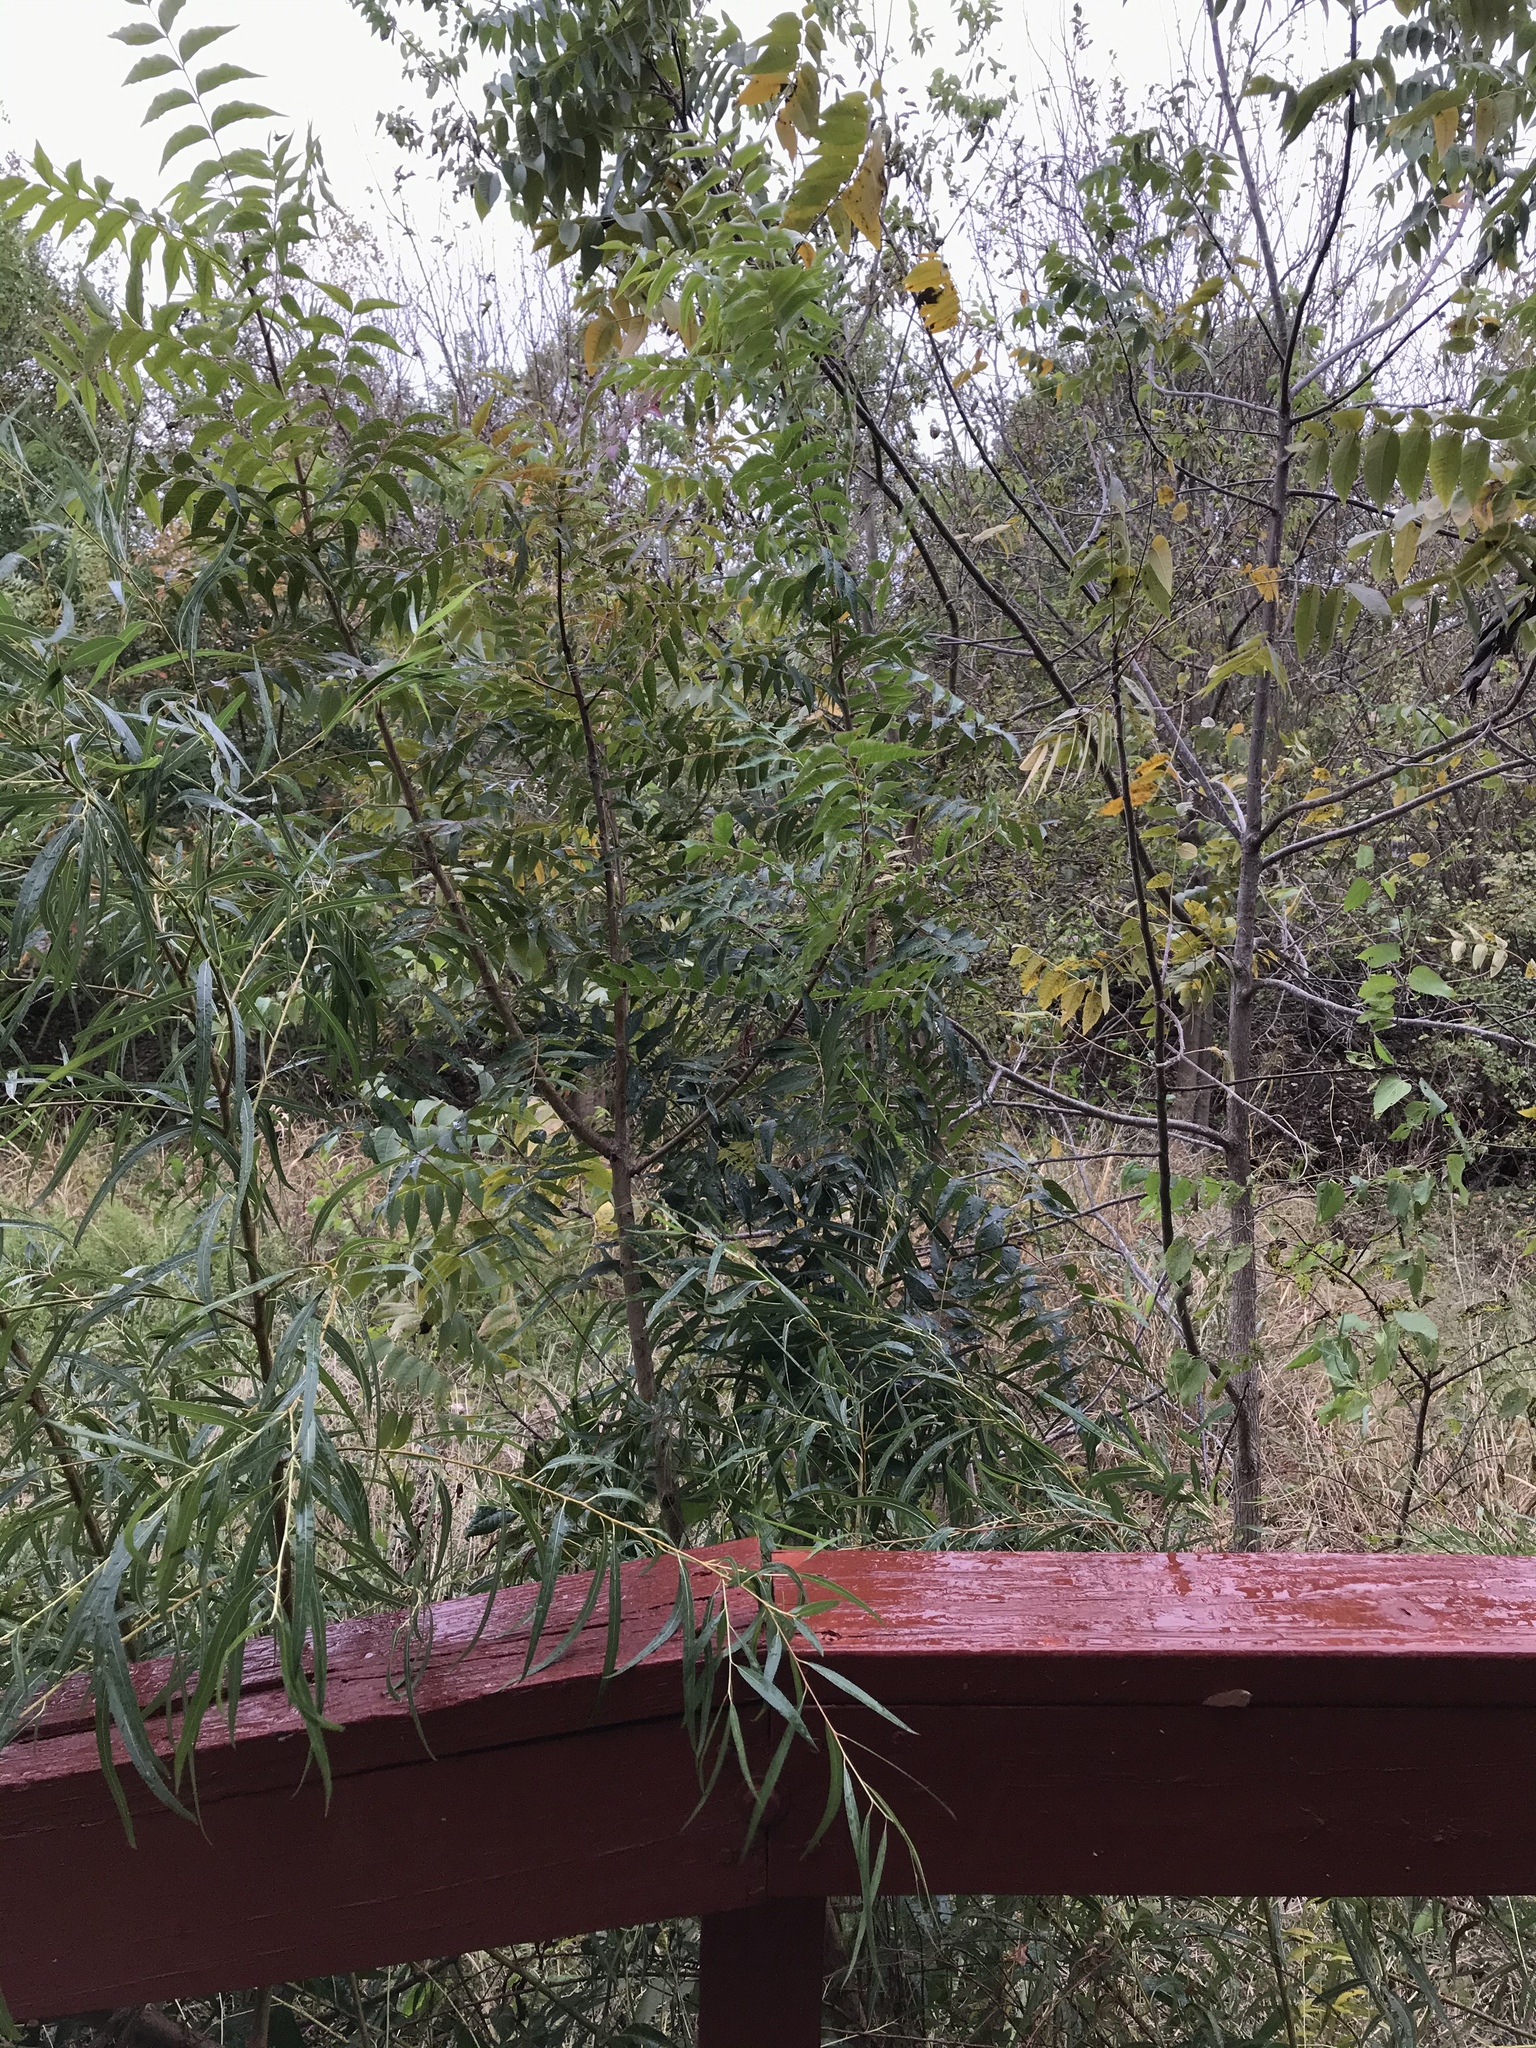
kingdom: Plantae
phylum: Tracheophyta
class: Magnoliopsida
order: Sapindales
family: Anacardiaceae
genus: Pistacia
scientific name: Pistacia chinensis
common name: Chinese pistache
